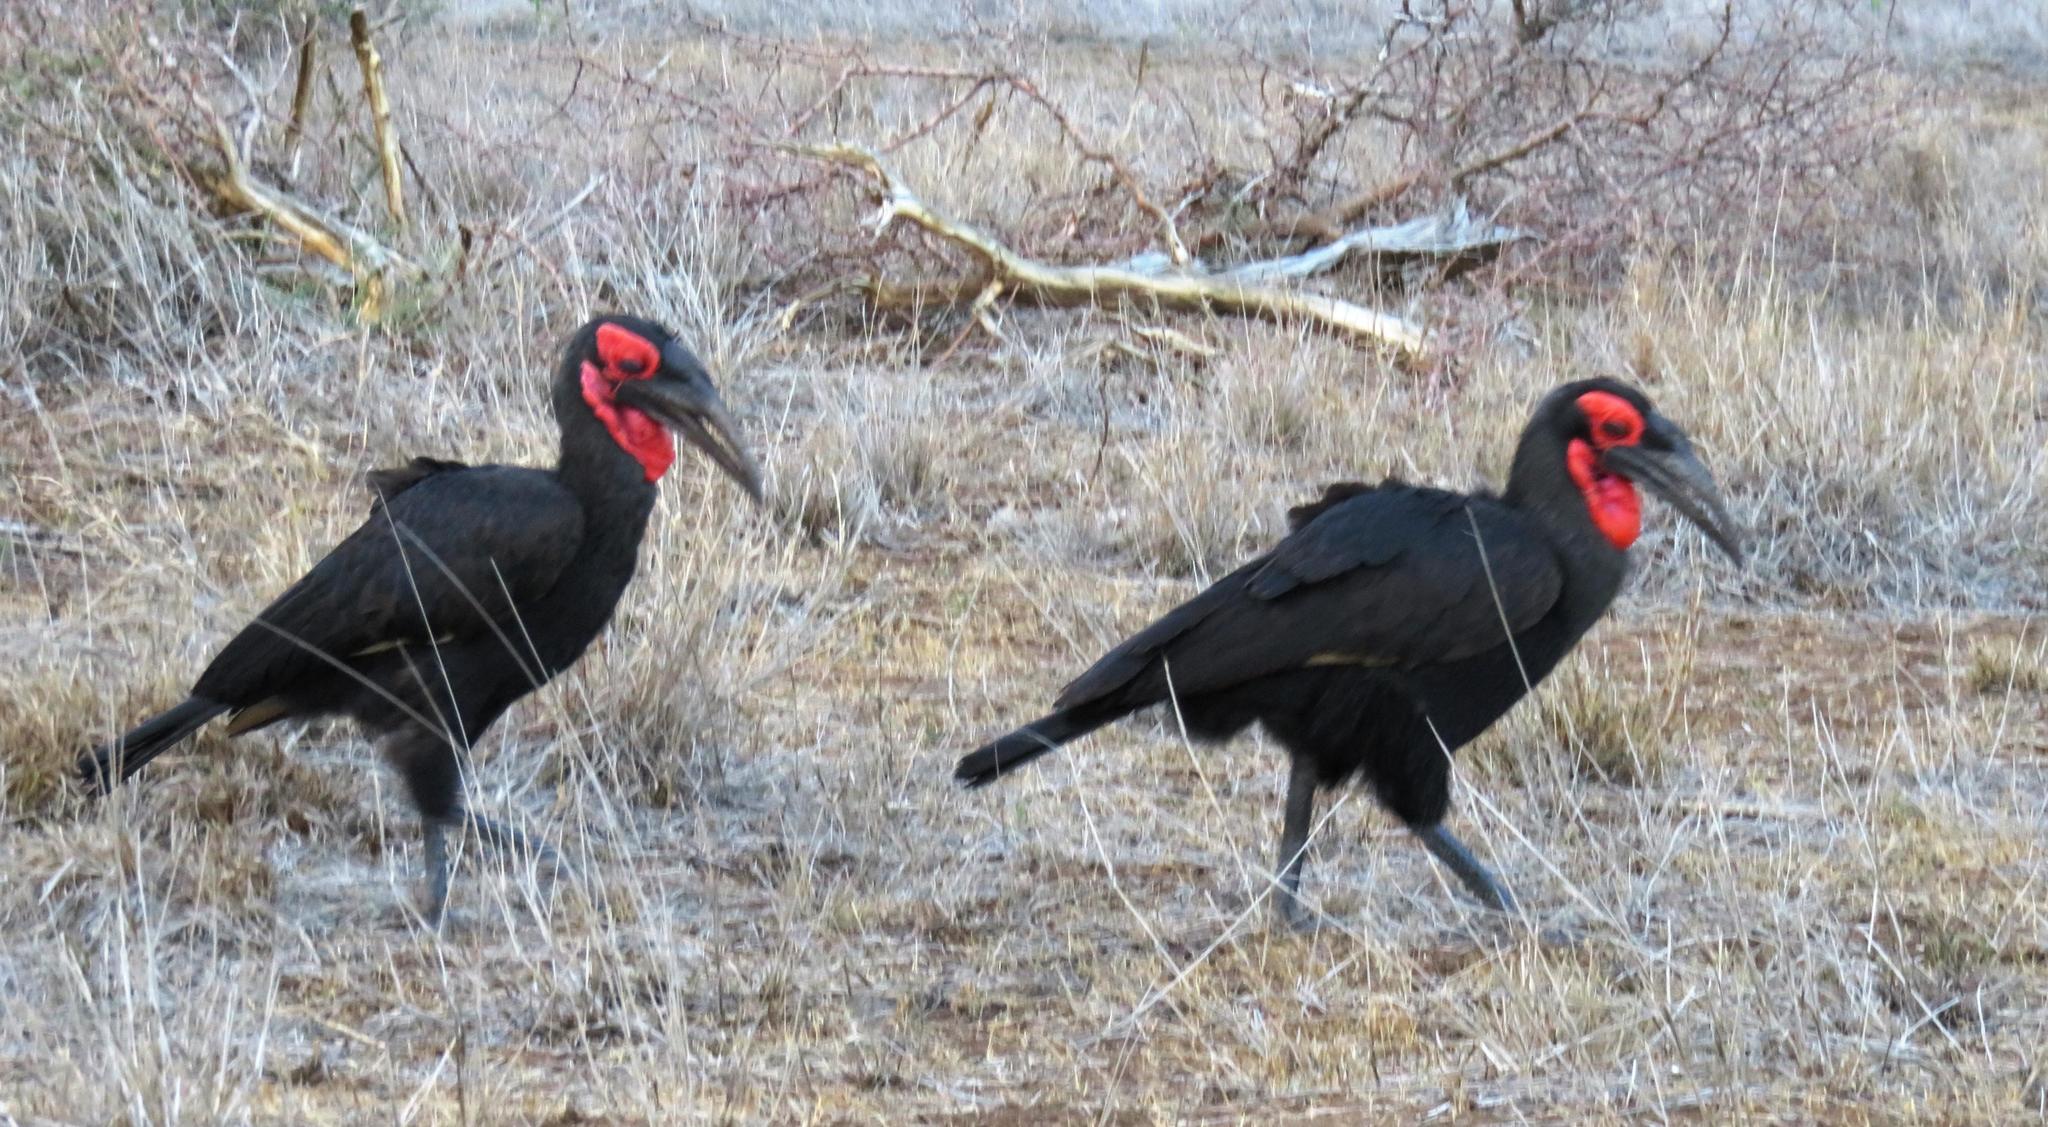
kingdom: Animalia
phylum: Chordata
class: Aves
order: Bucerotiformes
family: Bucorvidae
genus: Bucorvus
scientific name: Bucorvus leadbeateri
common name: Southern ground-hornbill
